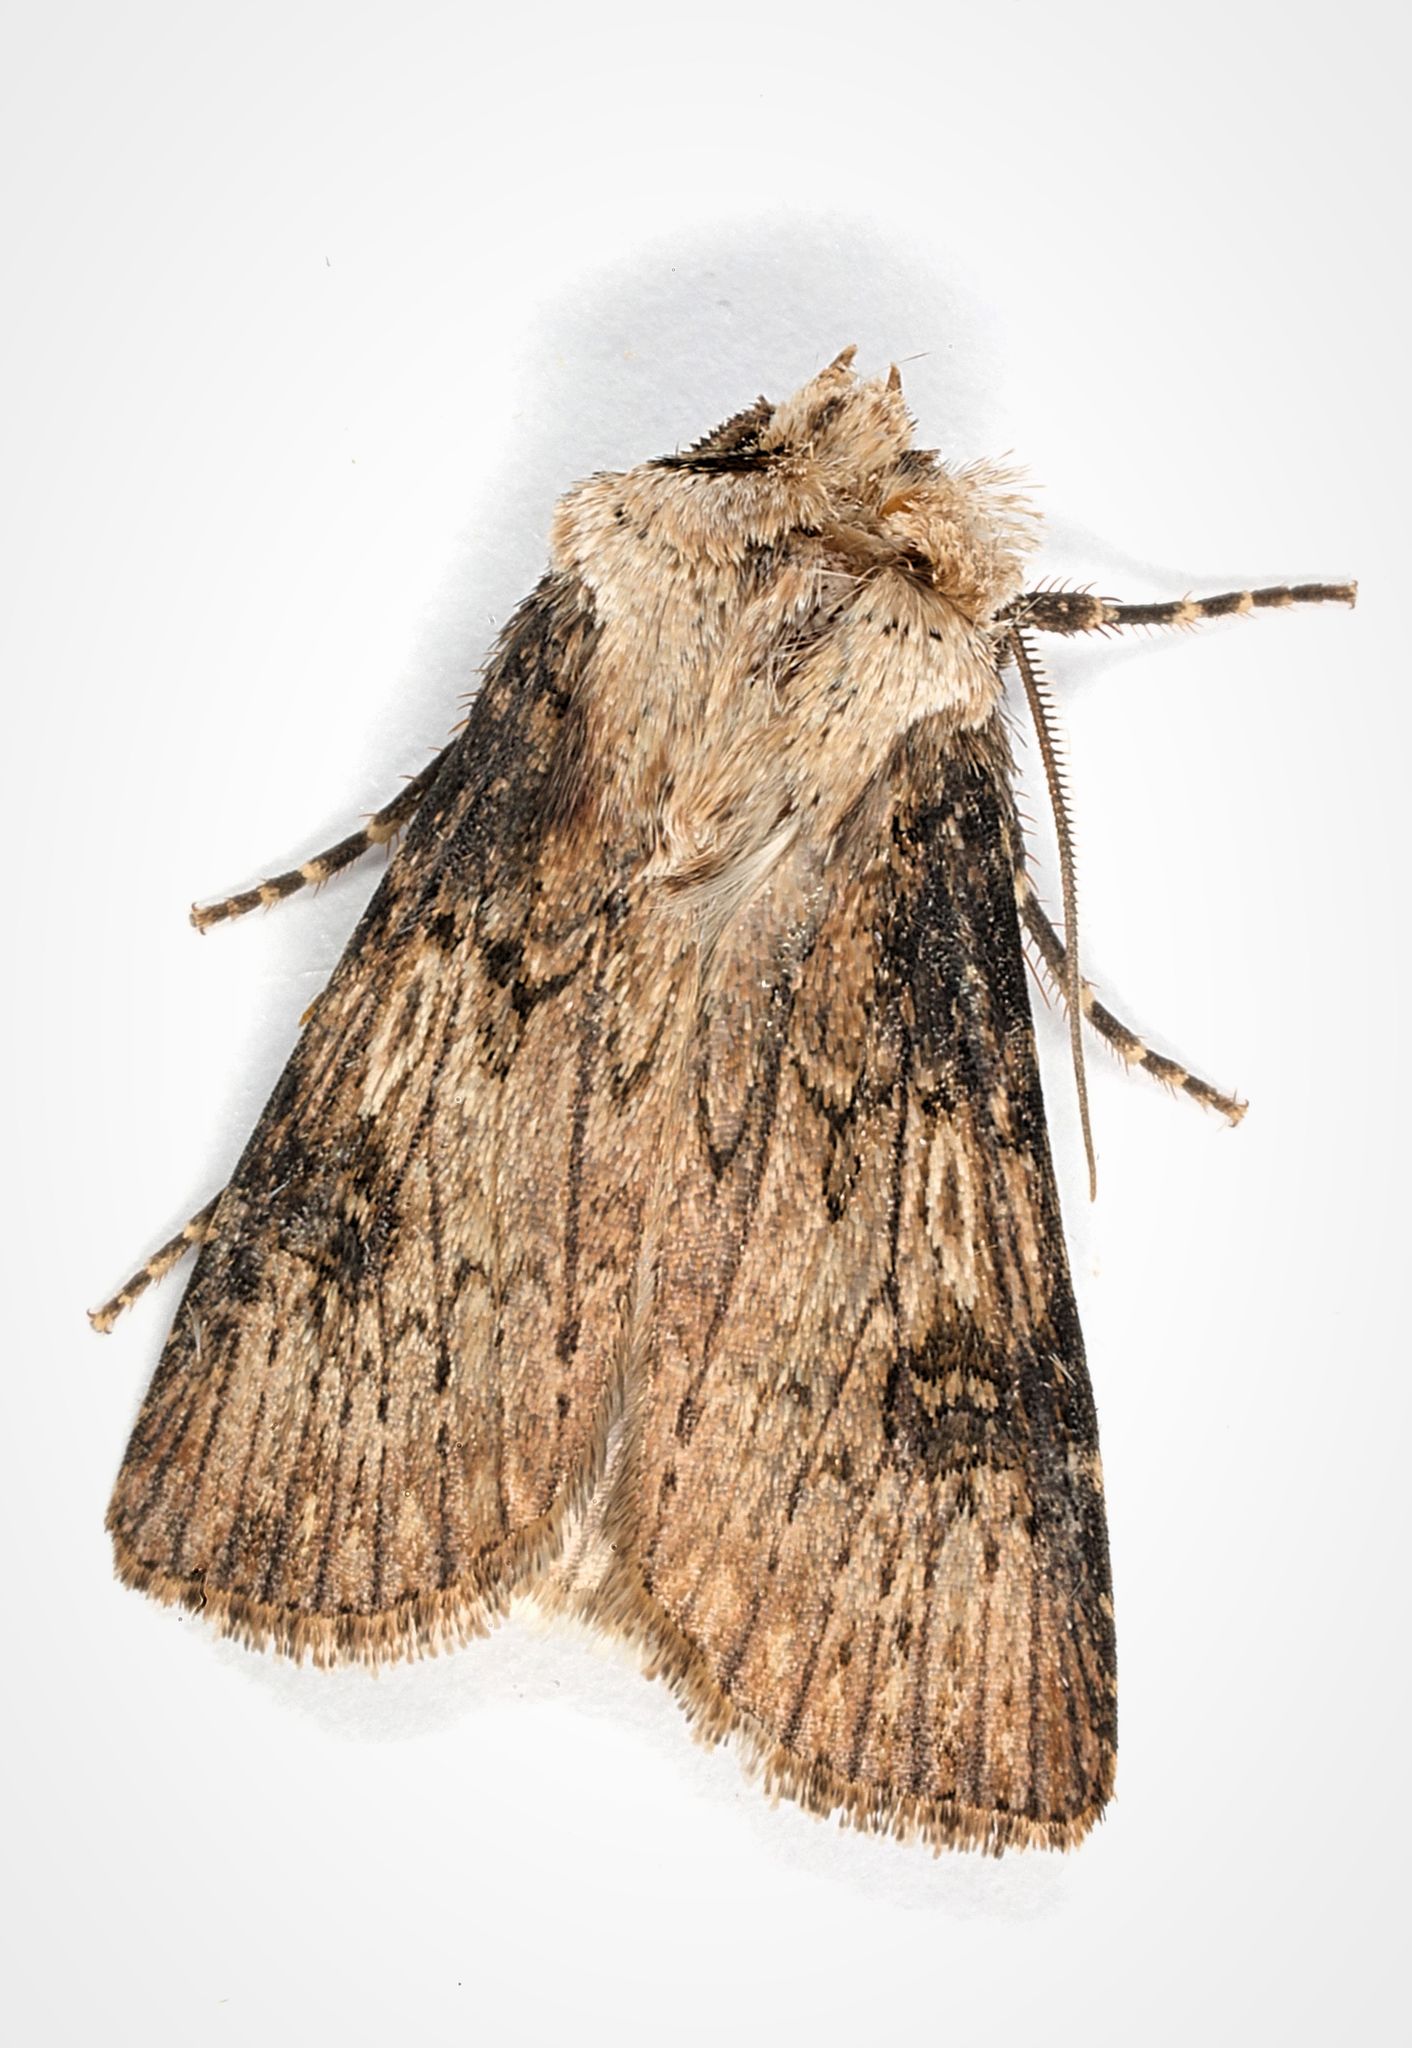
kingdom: Animalia
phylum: Arthropoda
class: Insecta
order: Lepidoptera
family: Noctuidae
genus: Agrotis
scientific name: Agrotis puta
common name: Shuttle-shaped dart
